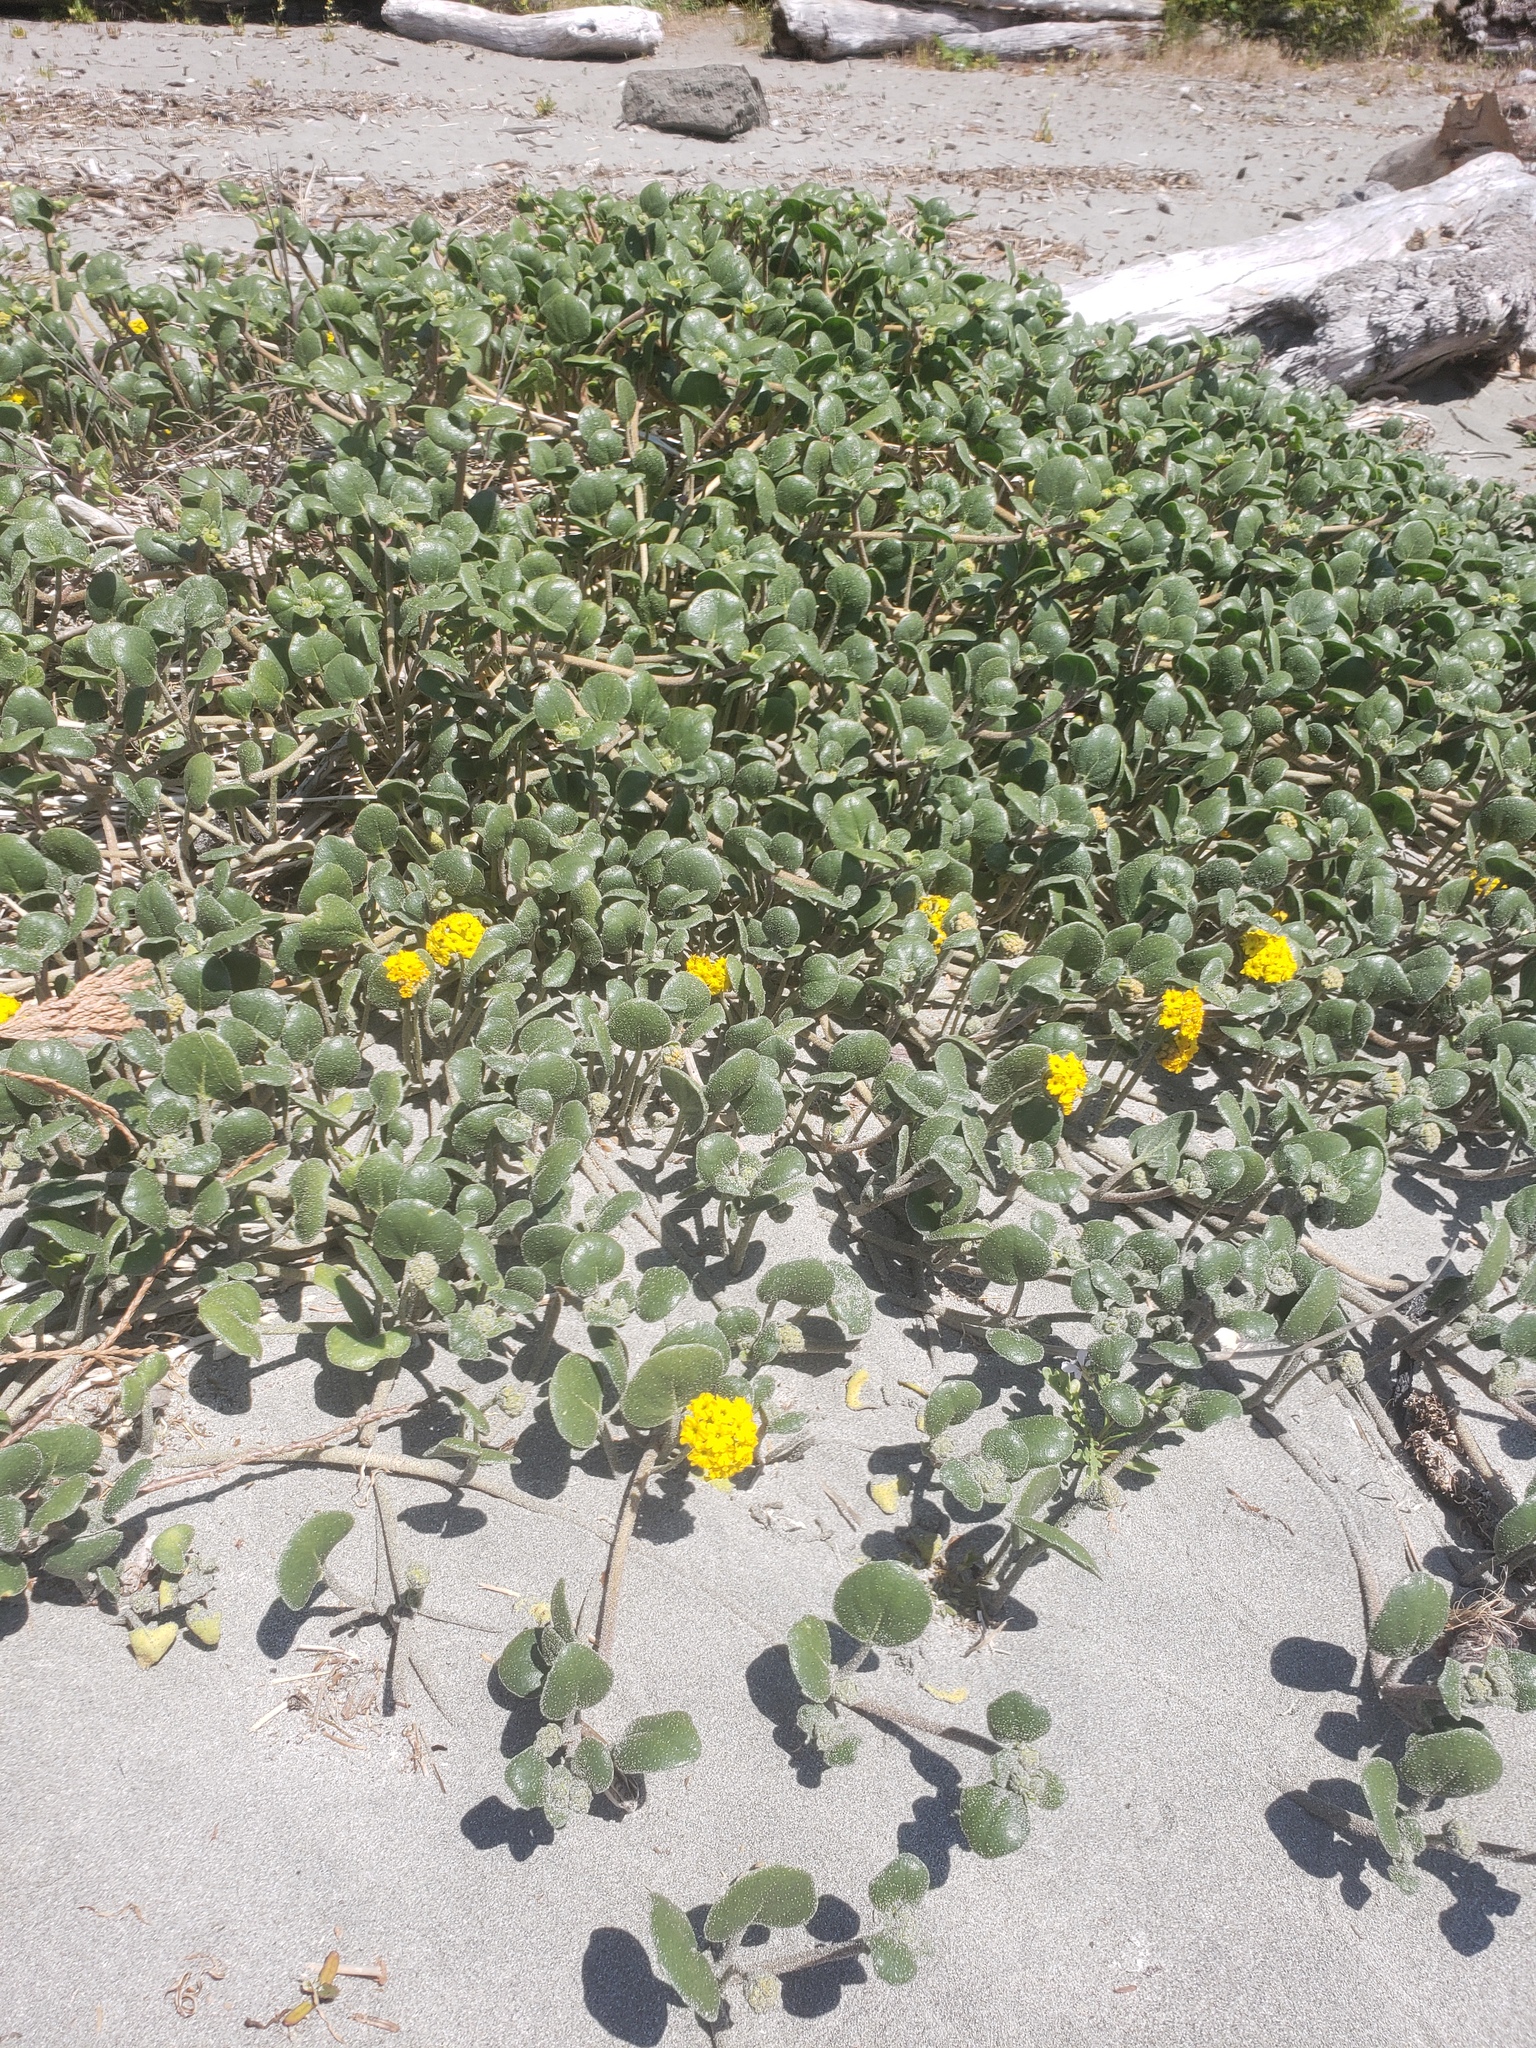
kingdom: Plantae
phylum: Tracheophyta
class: Magnoliopsida
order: Caryophyllales
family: Nyctaginaceae
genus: Abronia
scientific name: Abronia latifolia
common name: Yellow sand-verbena
